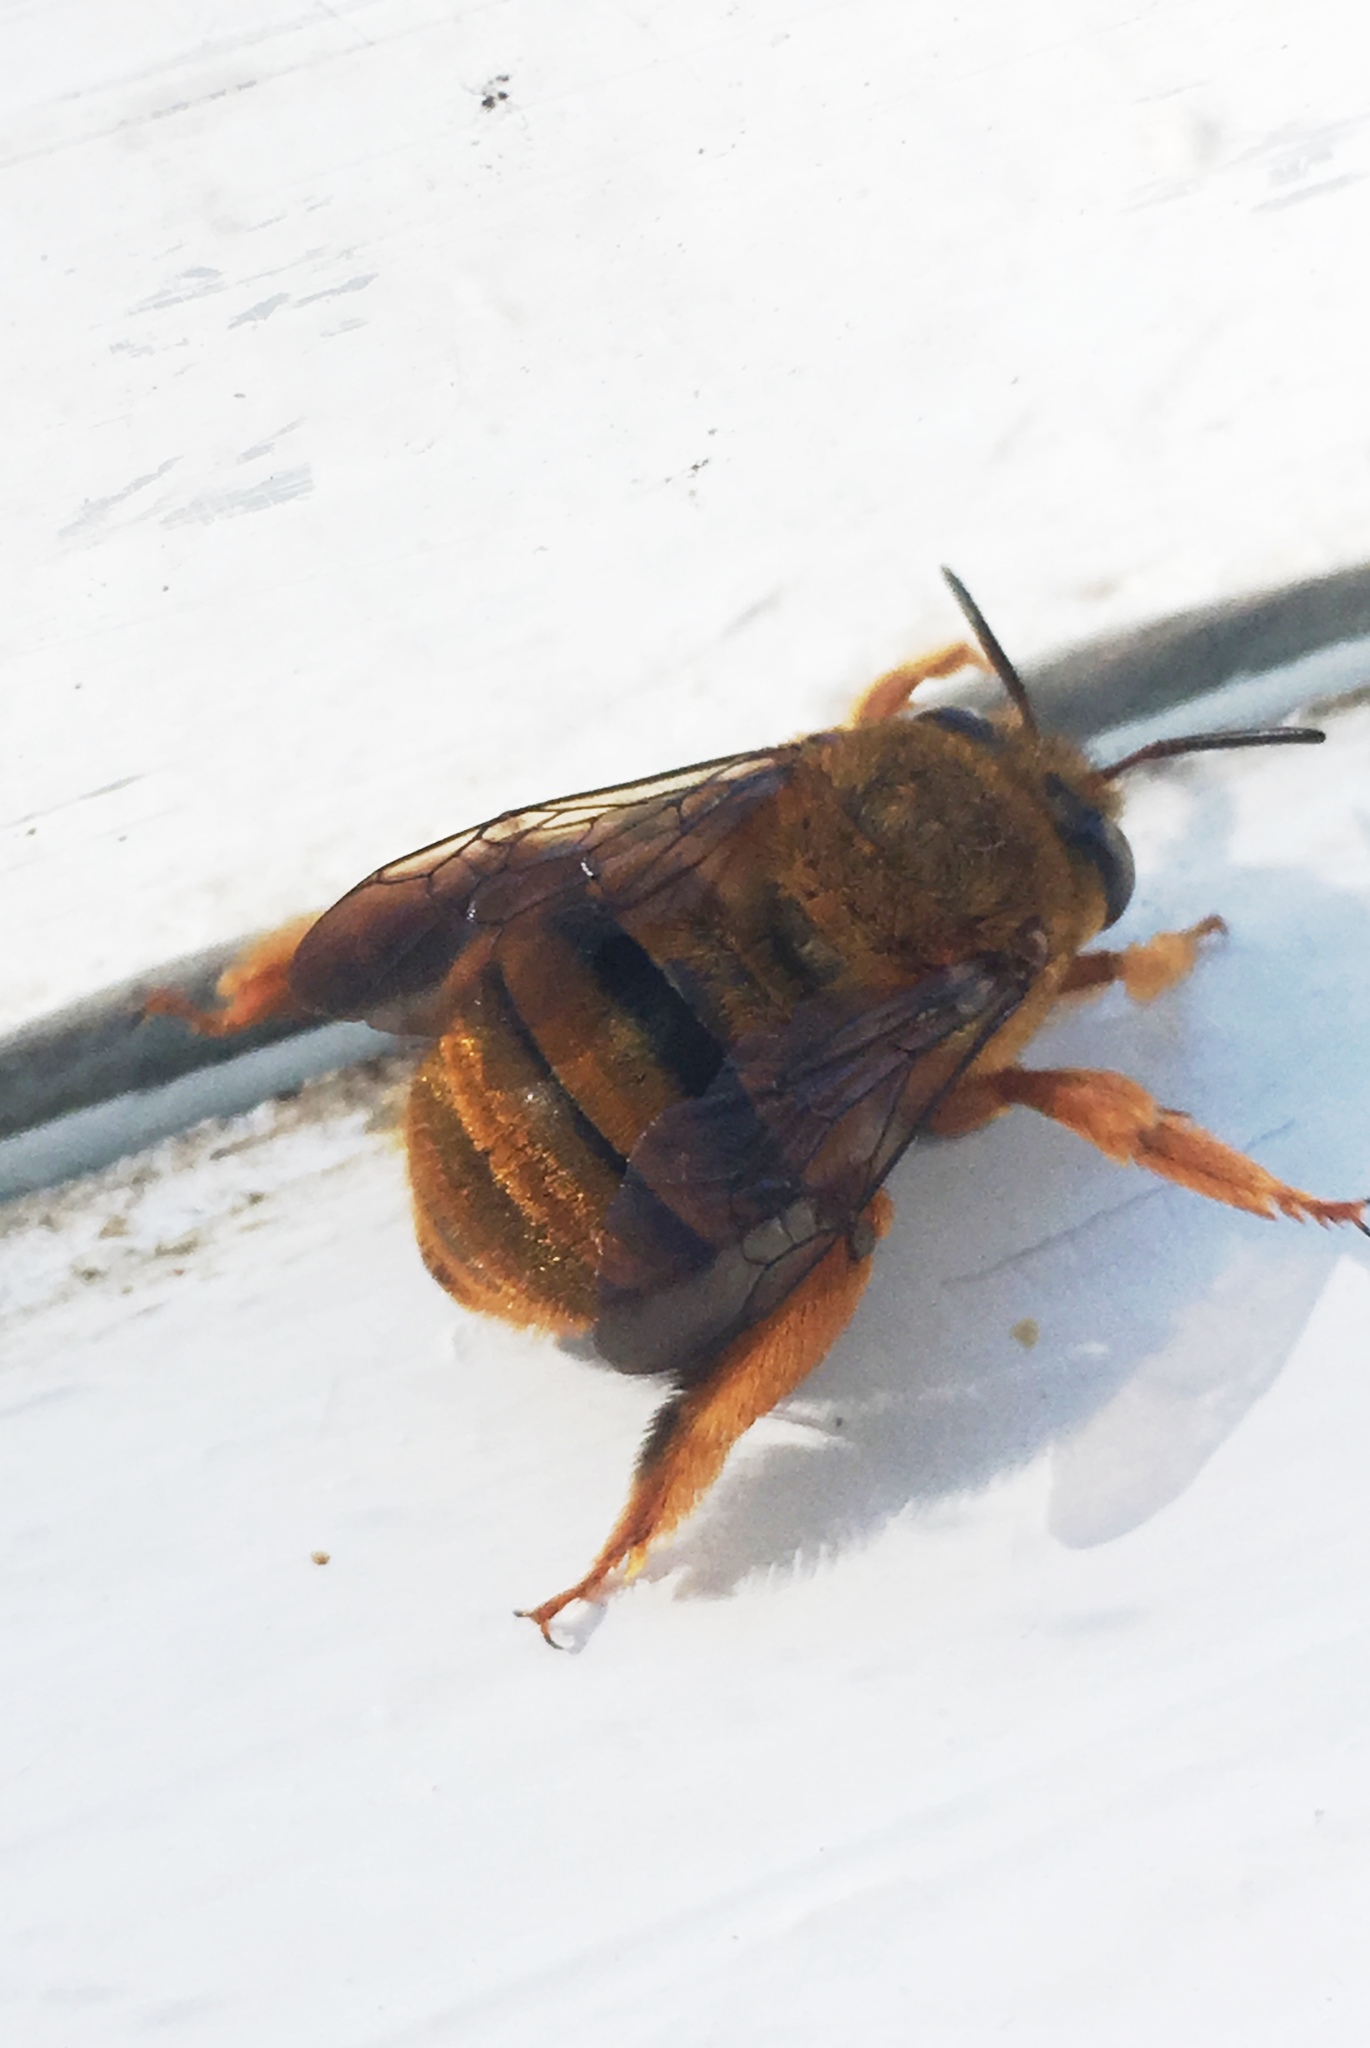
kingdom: Animalia
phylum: Arthropoda
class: Insecta
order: Hymenoptera
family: Apidae
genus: Amegilla
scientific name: Amegilla bombiformis
